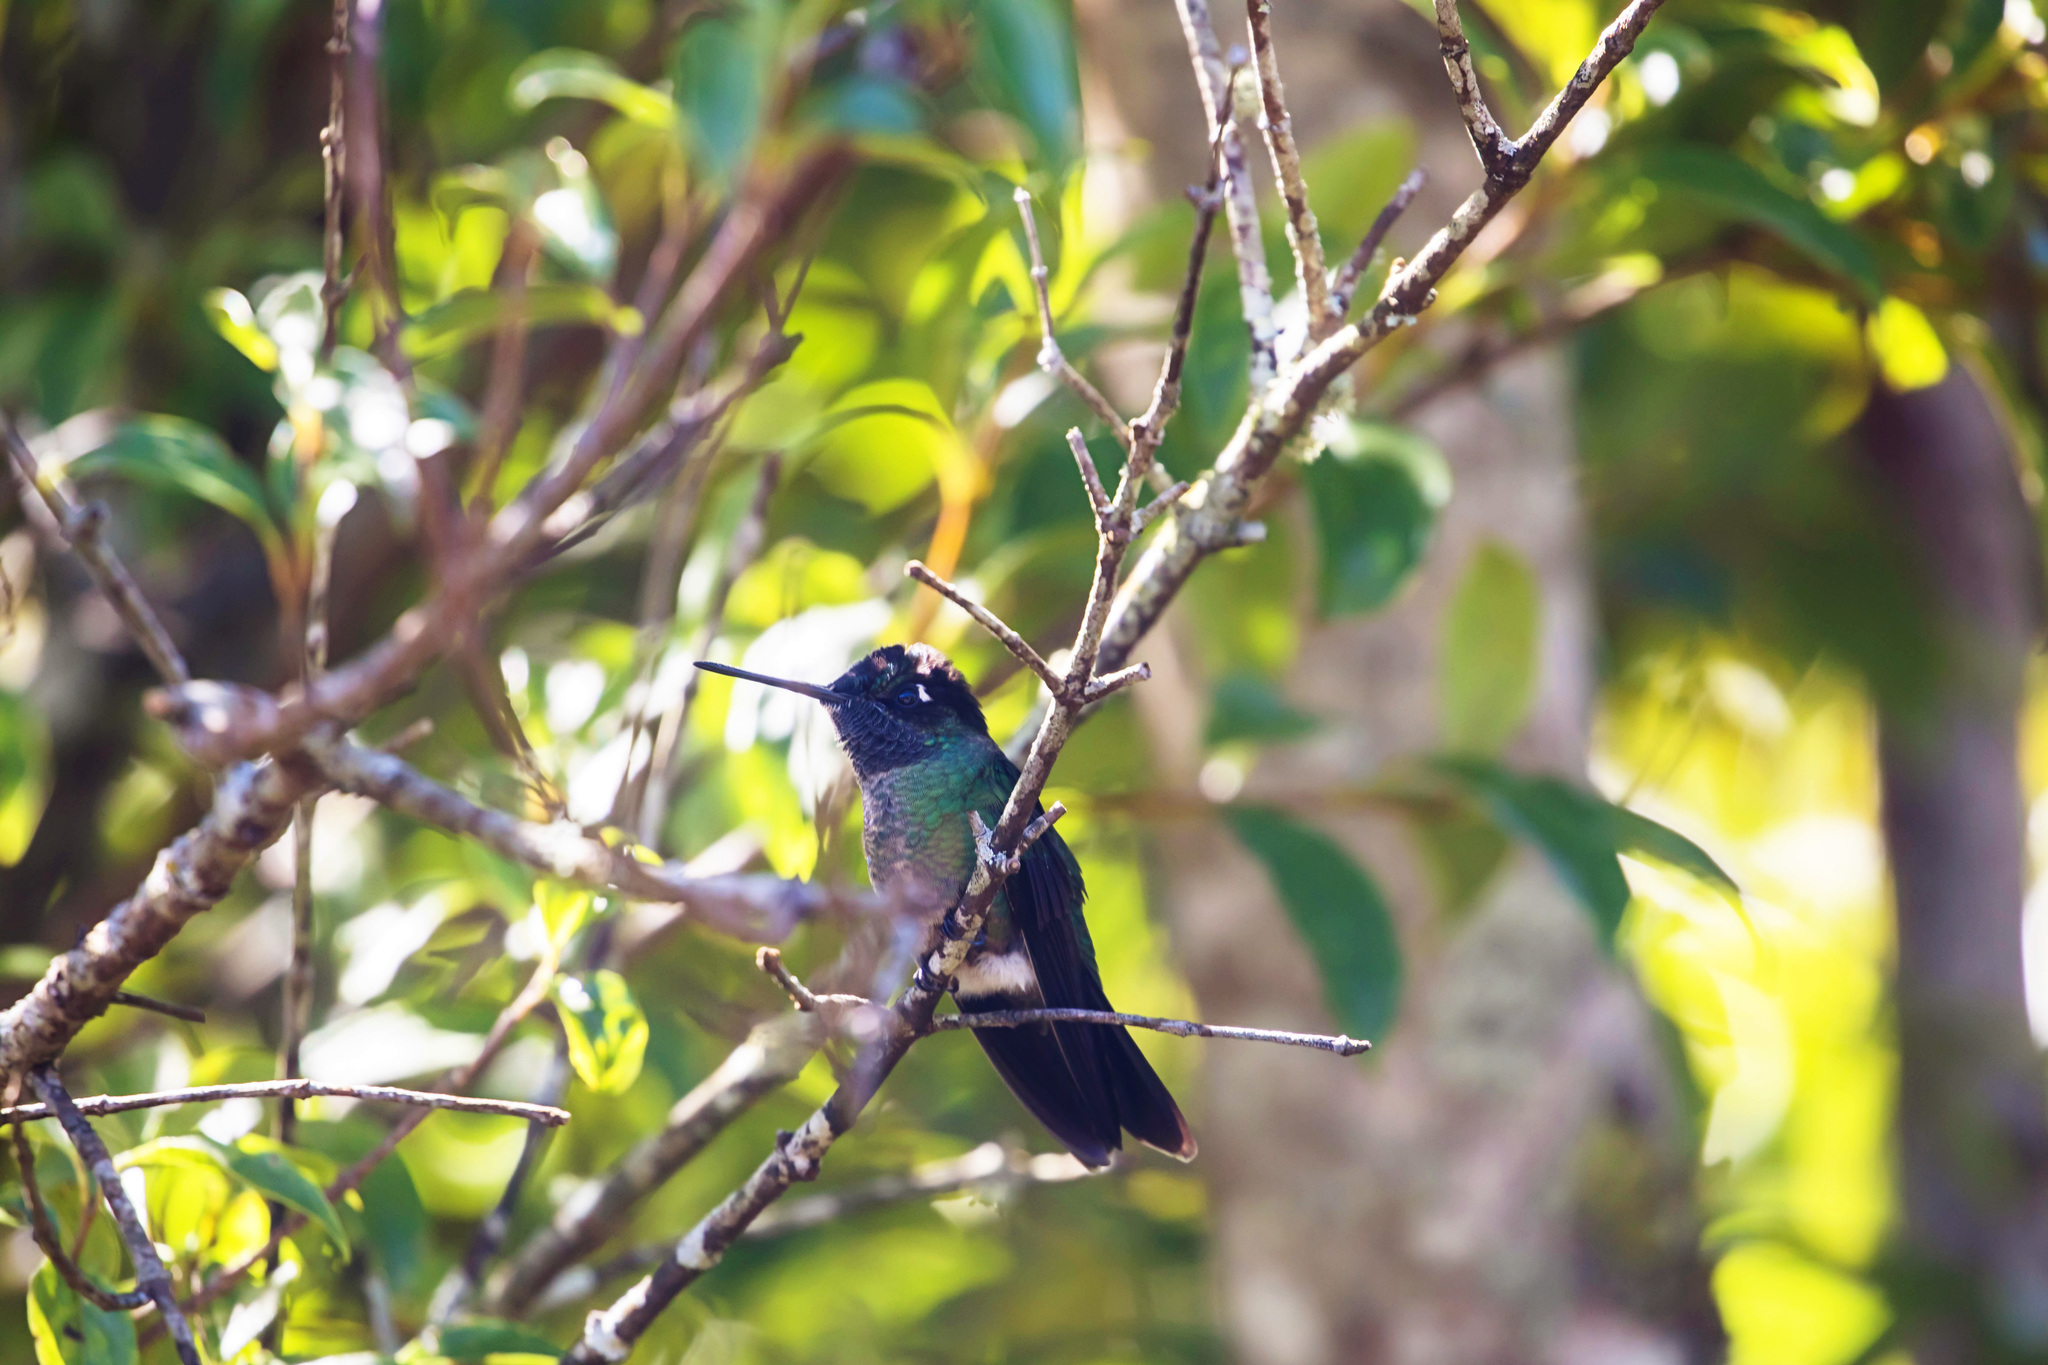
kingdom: Animalia
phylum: Chordata
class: Aves
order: Apodiformes
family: Trochilidae
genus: Eugenes
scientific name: Eugenes spectabilis
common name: Talamanca hummingbird
